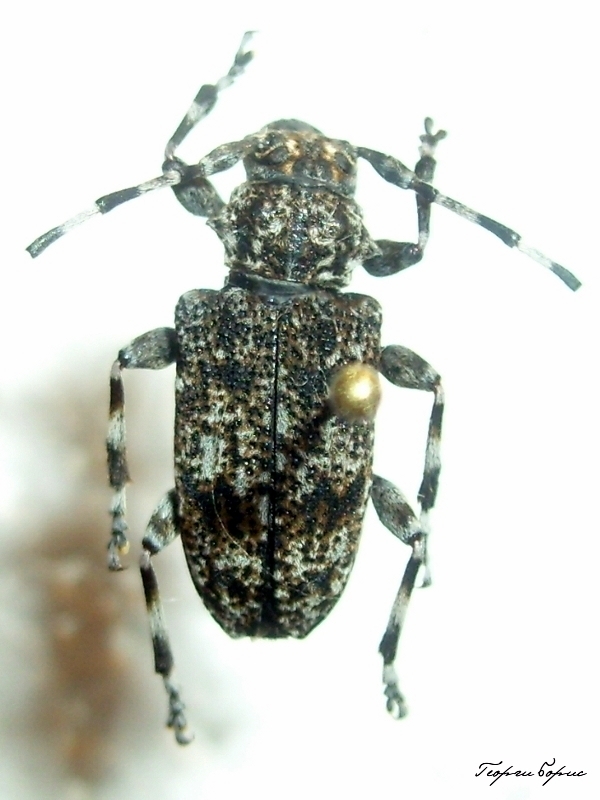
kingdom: Animalia
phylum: Arthropoda
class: Insecta
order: Coleoptera
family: Cerambycidae
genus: Aegomorphus
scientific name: Aegomorphus clavipes
